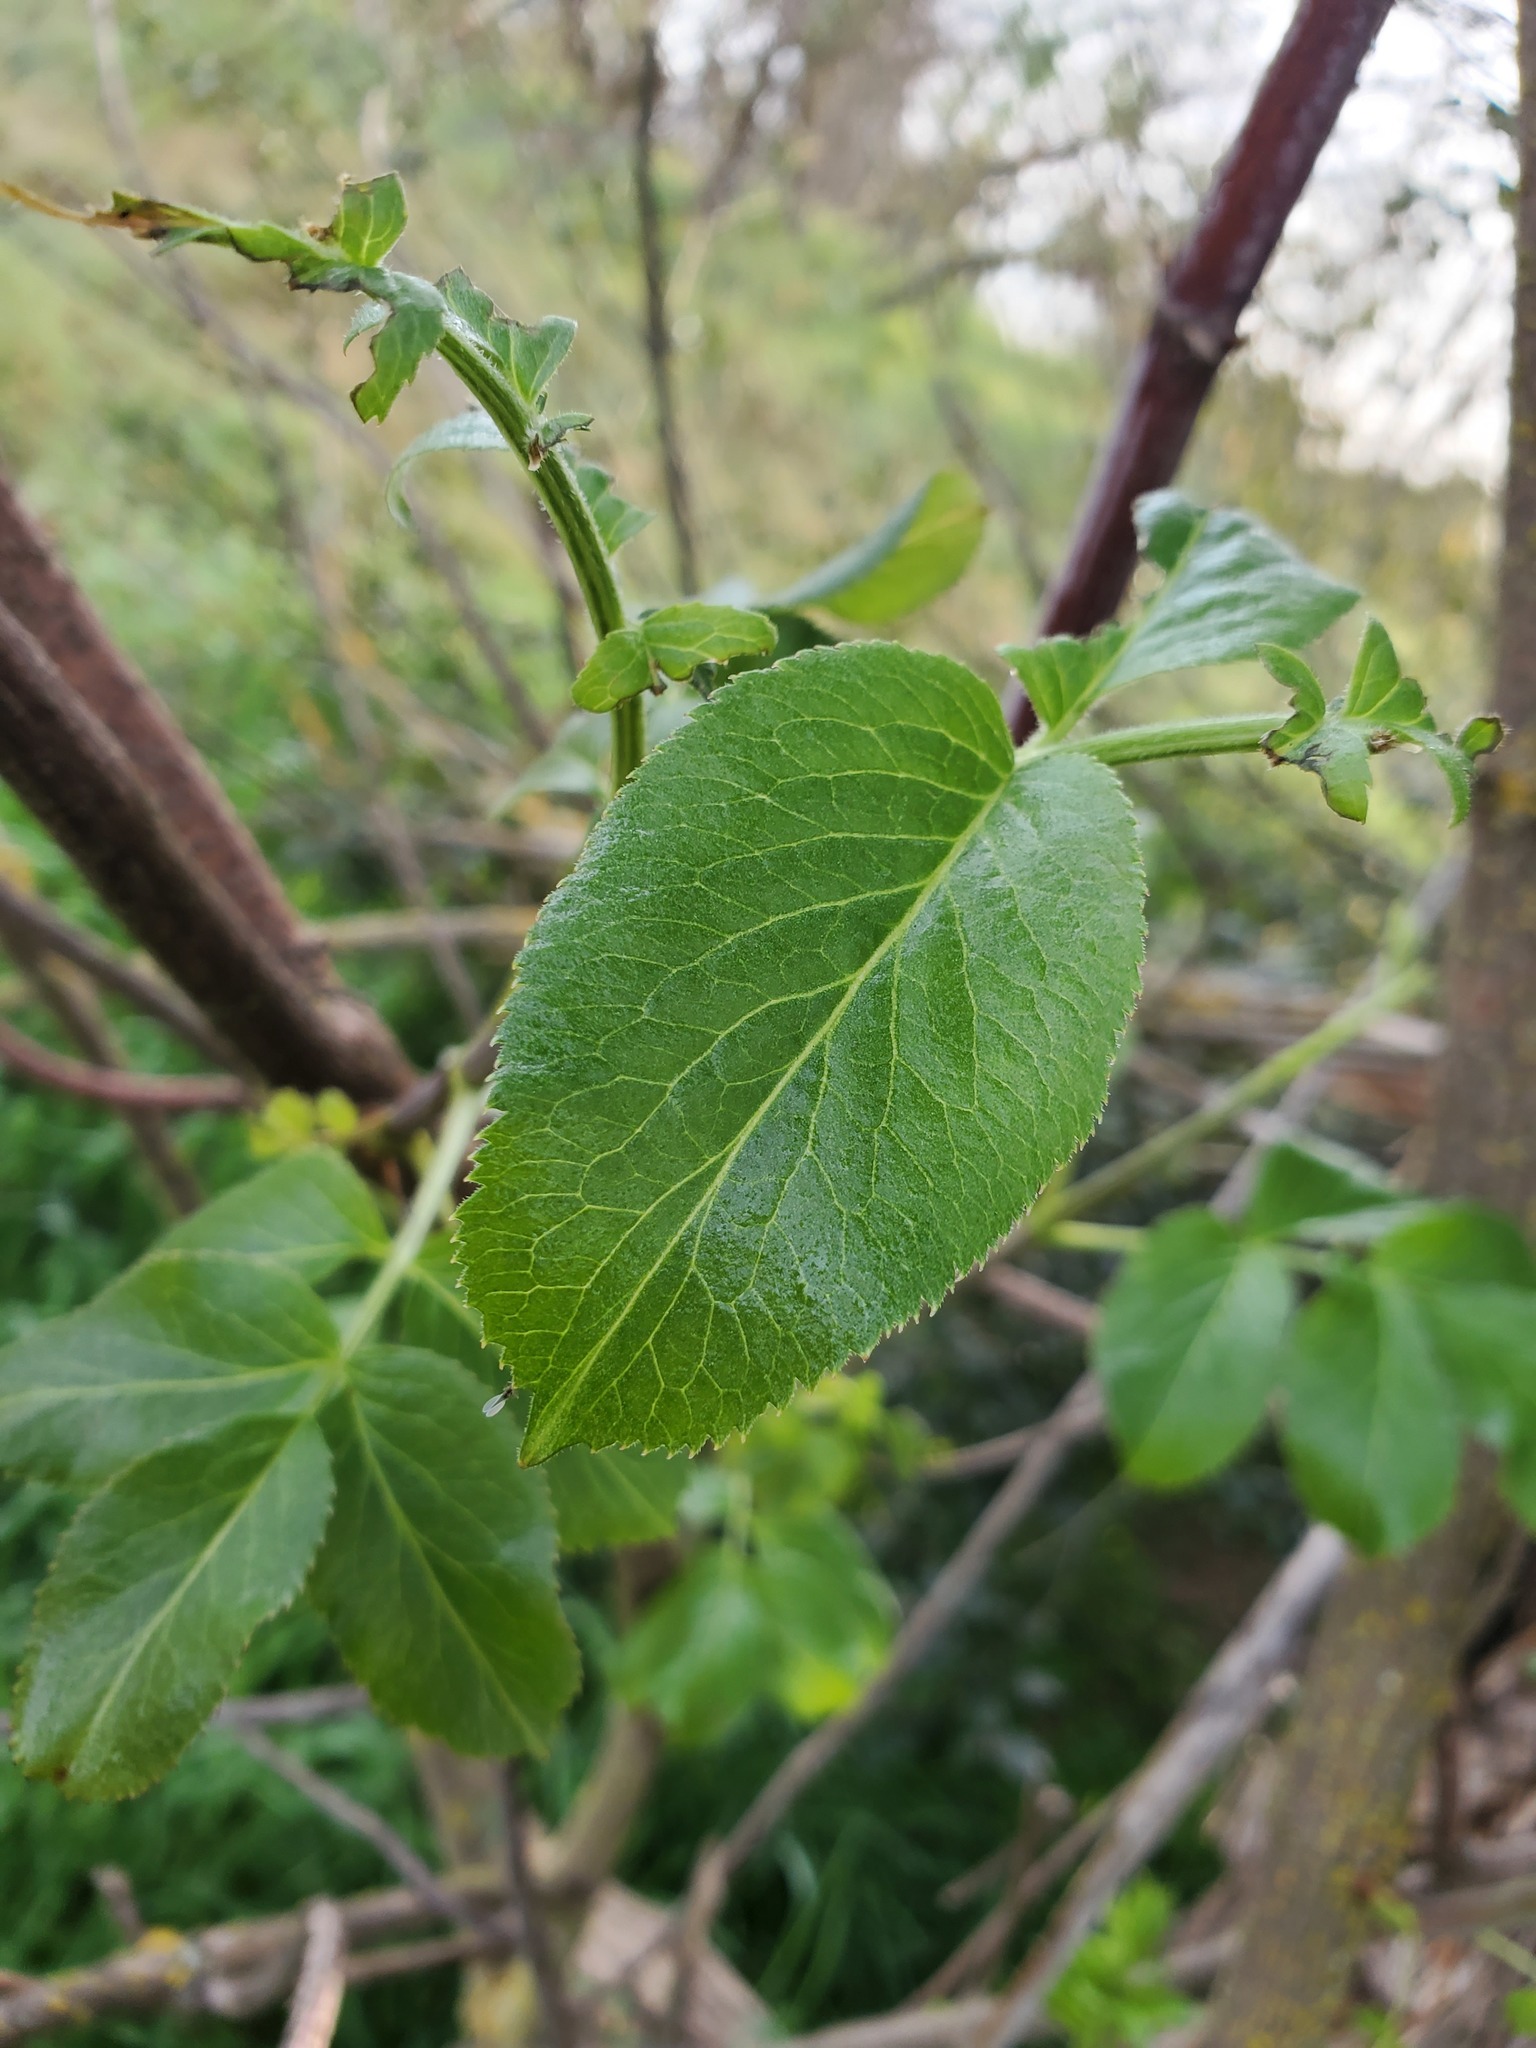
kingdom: Plantae
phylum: Tracheophyta
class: Magnoliopsida
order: Dipsacales
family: Viburnaceae
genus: Sambucus
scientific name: Sambucus cerulea
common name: Blue elder
